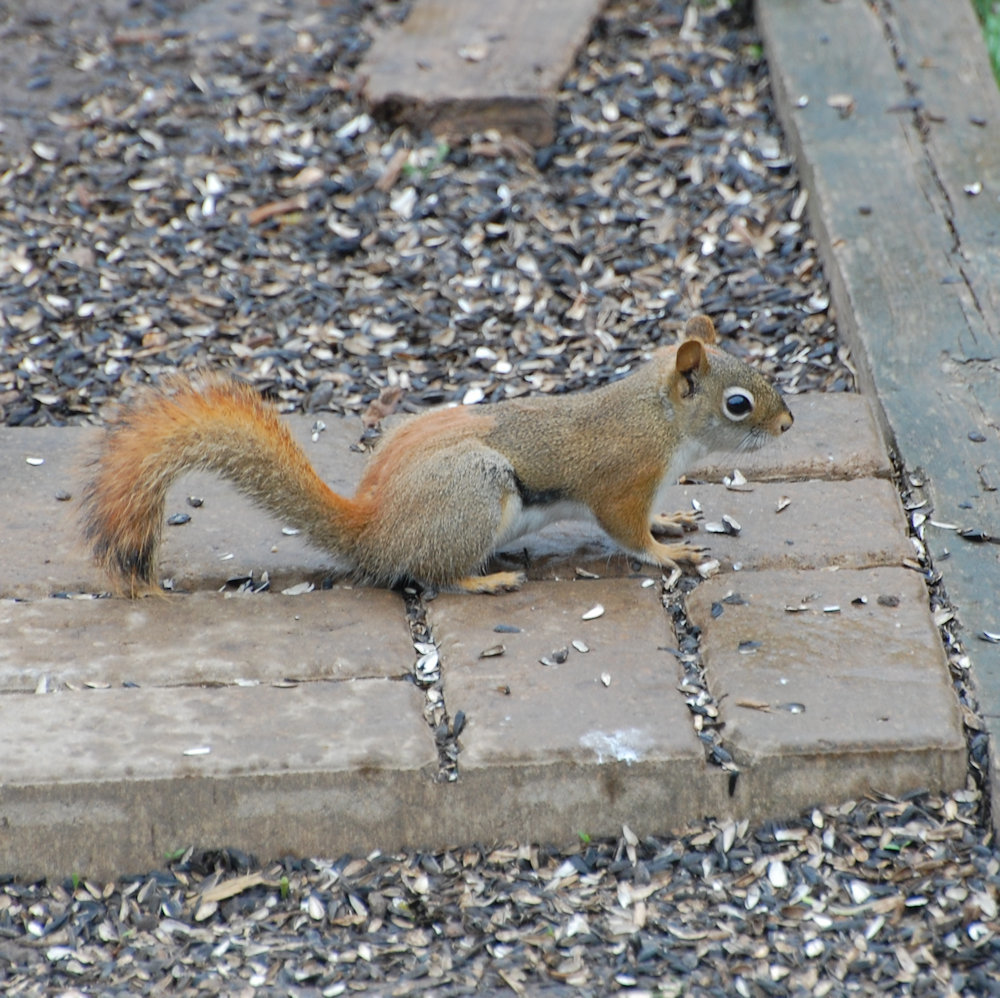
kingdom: Animalia
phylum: Chordata
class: Mammalia
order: Rodentia
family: Sciuridae
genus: Tamiasciurus
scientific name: Tamiasciurus hudsonicus
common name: Red squirrel
